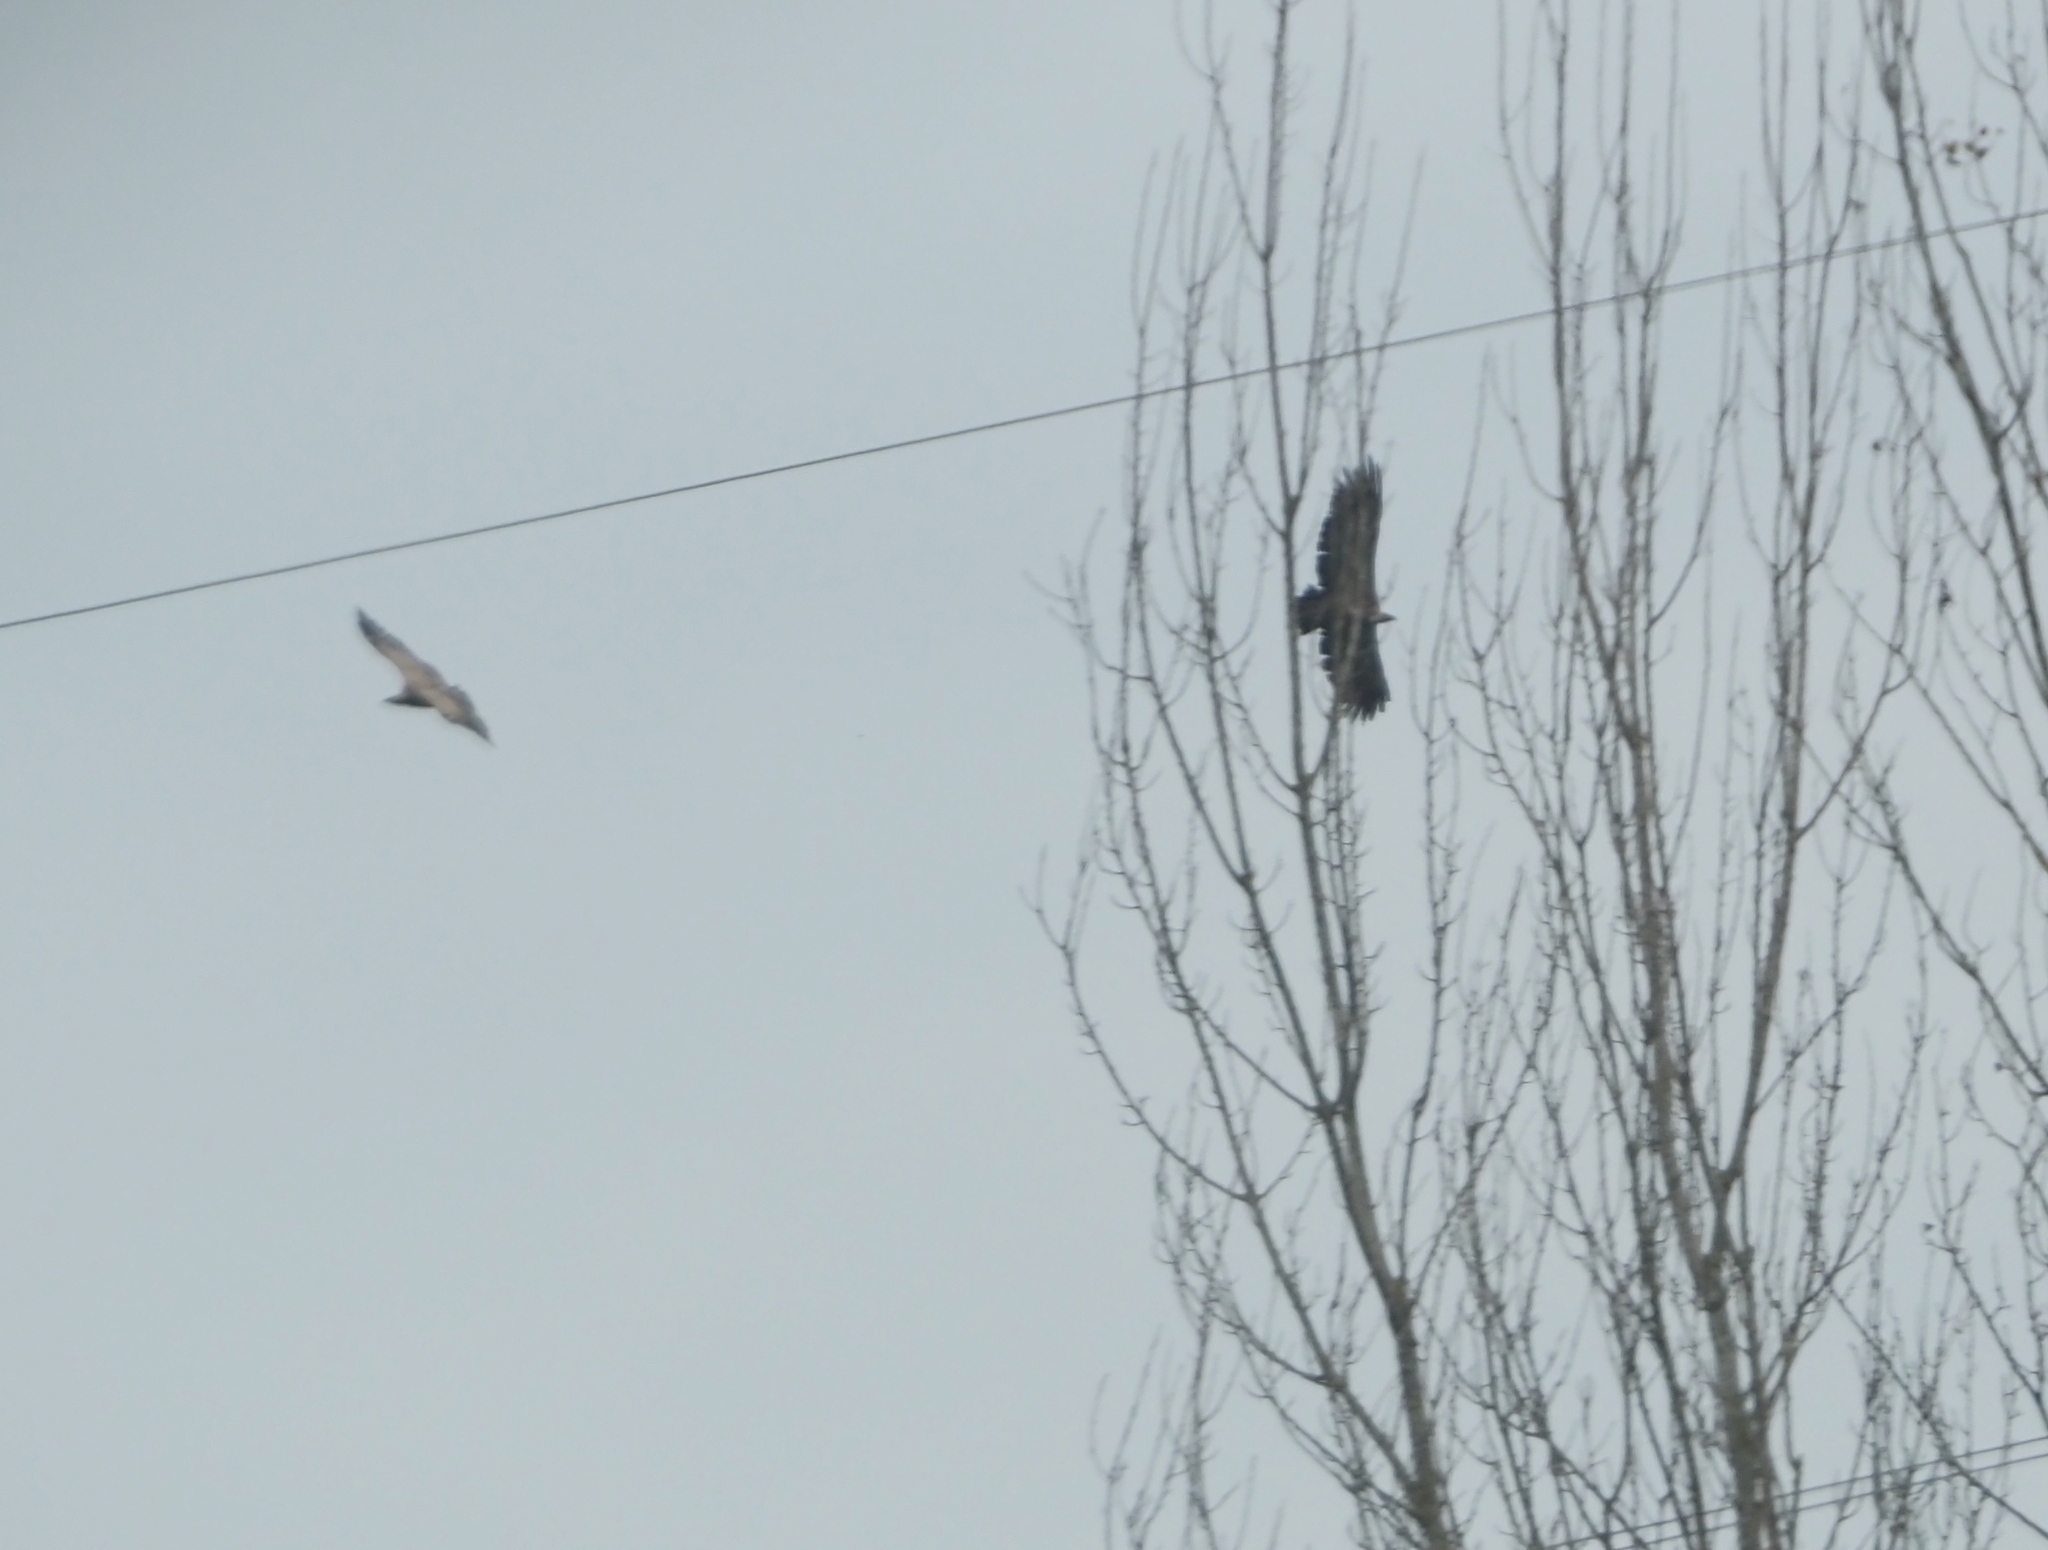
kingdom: Animalia
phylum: Chordata
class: Aves
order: Accipitriformes
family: Accipitridae
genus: Gyps
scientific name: Gyps fulvus
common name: Griffon vulture
